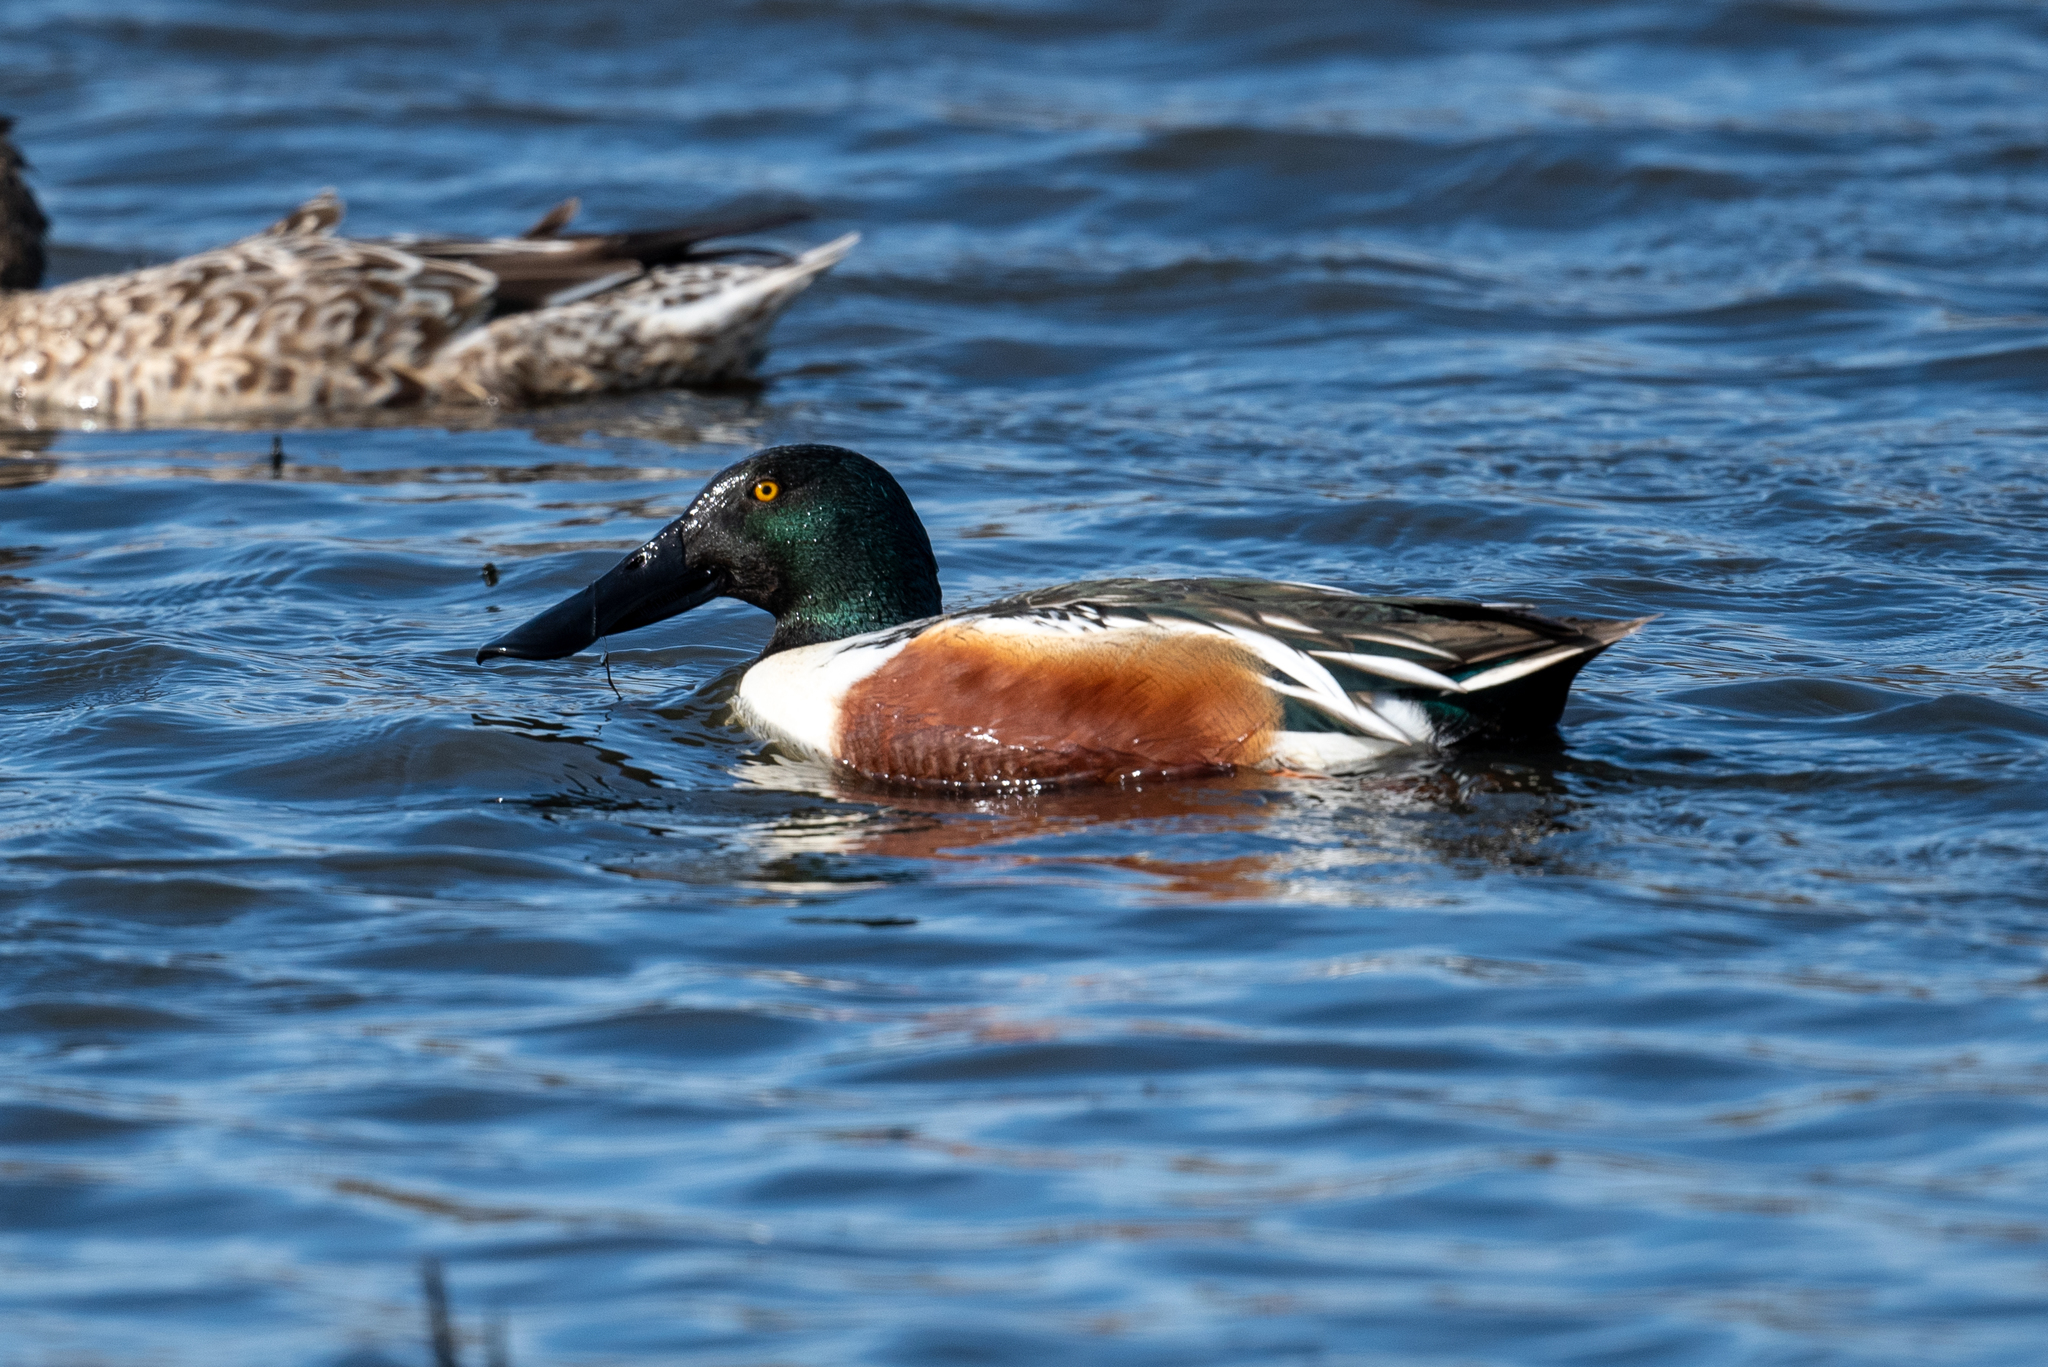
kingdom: Animalia
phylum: Chordata
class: Aves
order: Anseriformes
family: Anatidae
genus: Spatula
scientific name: Spatula clypeata
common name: Northern shoveler
